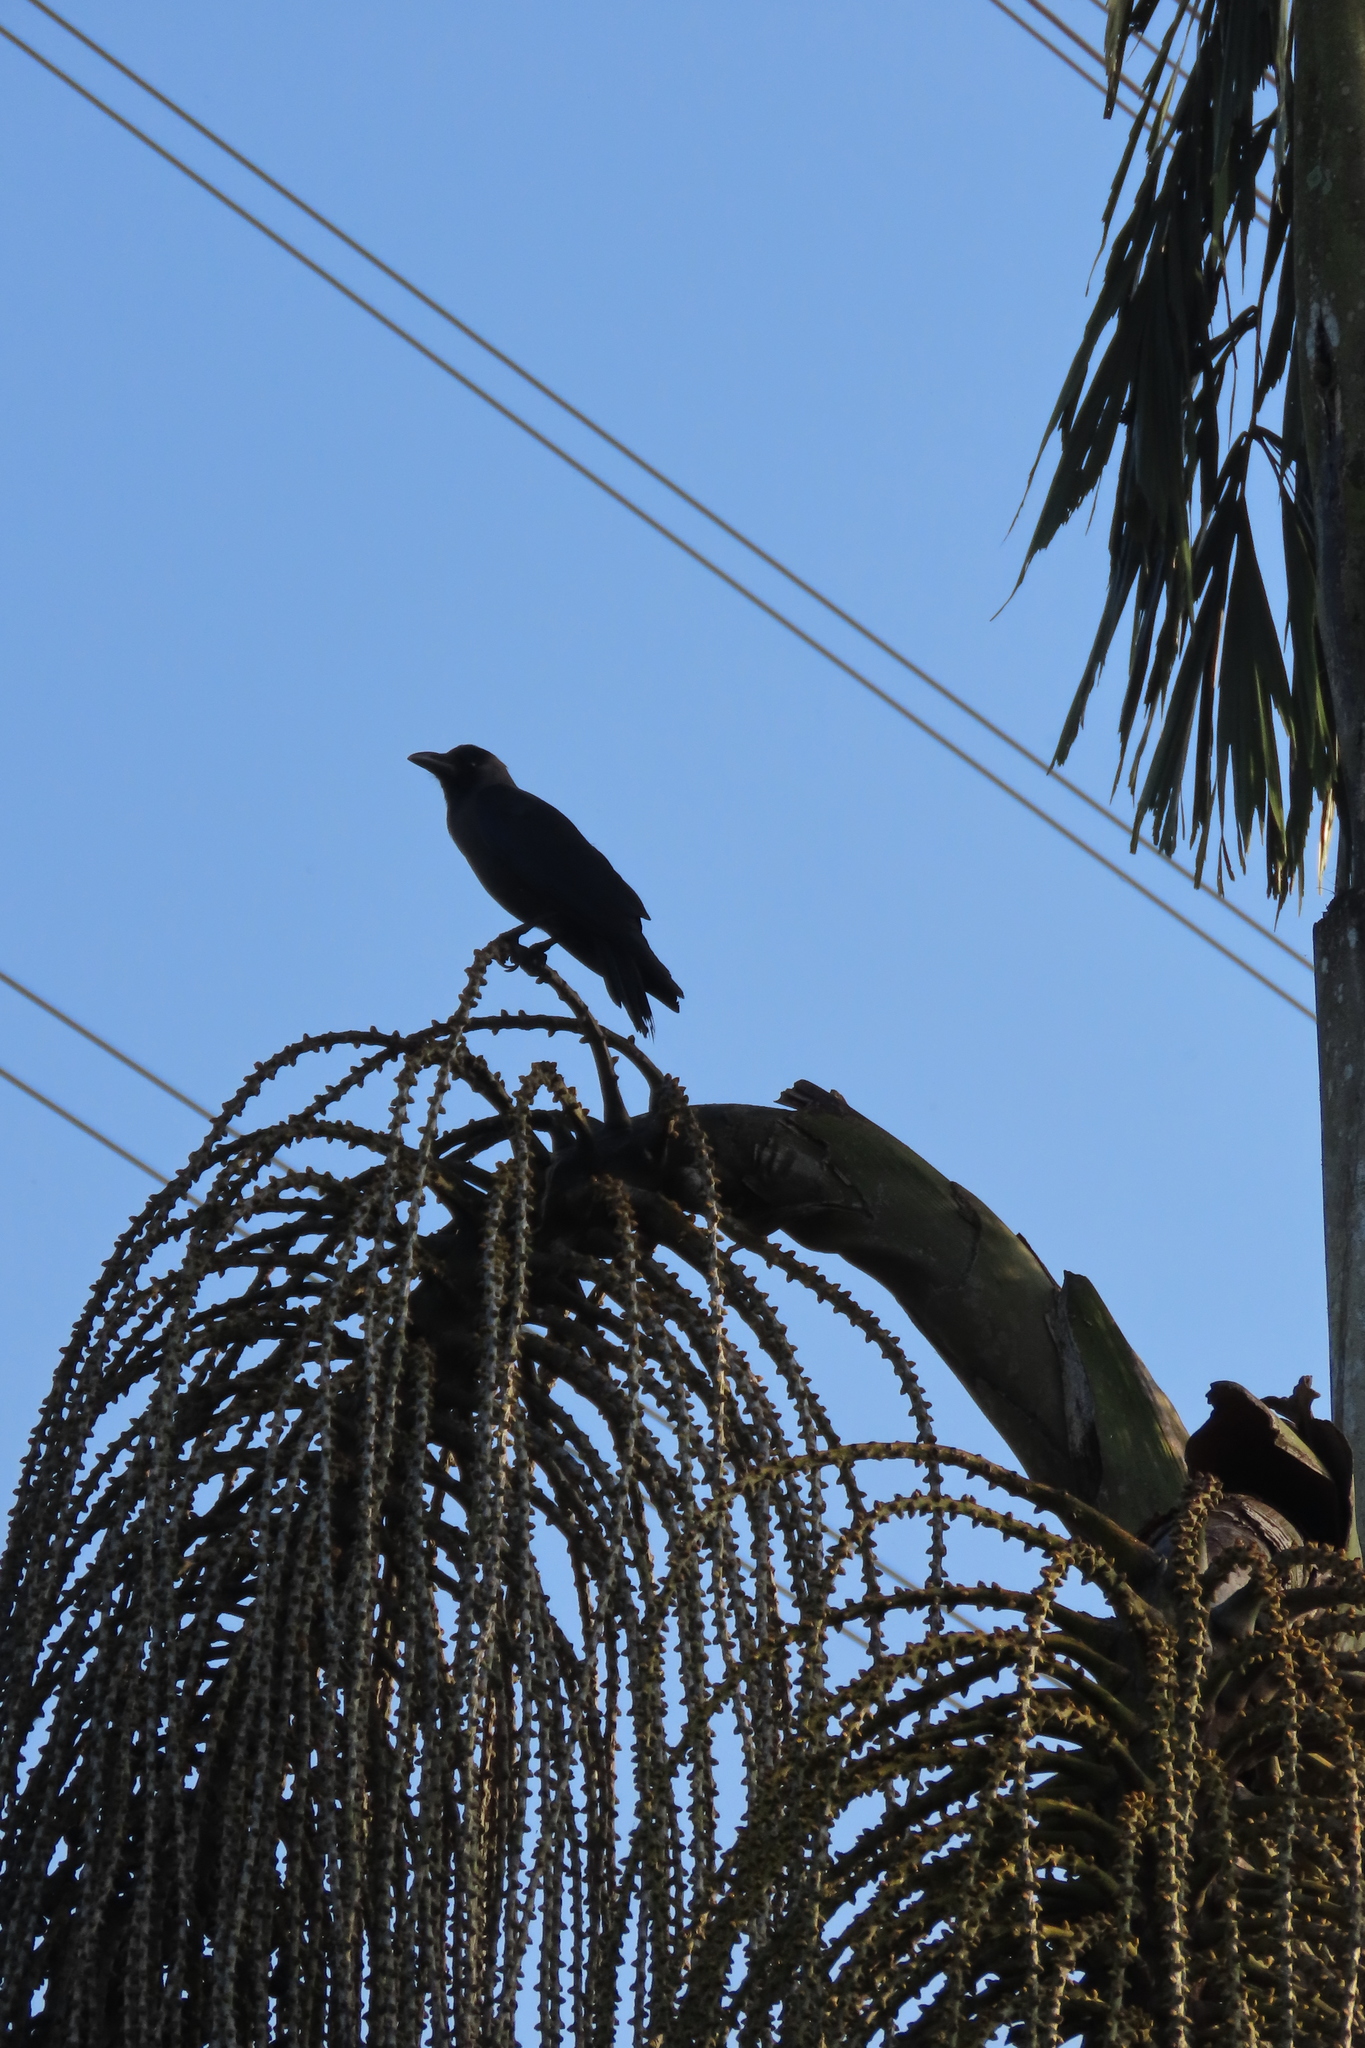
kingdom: Animalia
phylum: Chordata
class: Aves
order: Passeriformes
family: Corvidae
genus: Corvus
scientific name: Corvus splendens
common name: House crow
